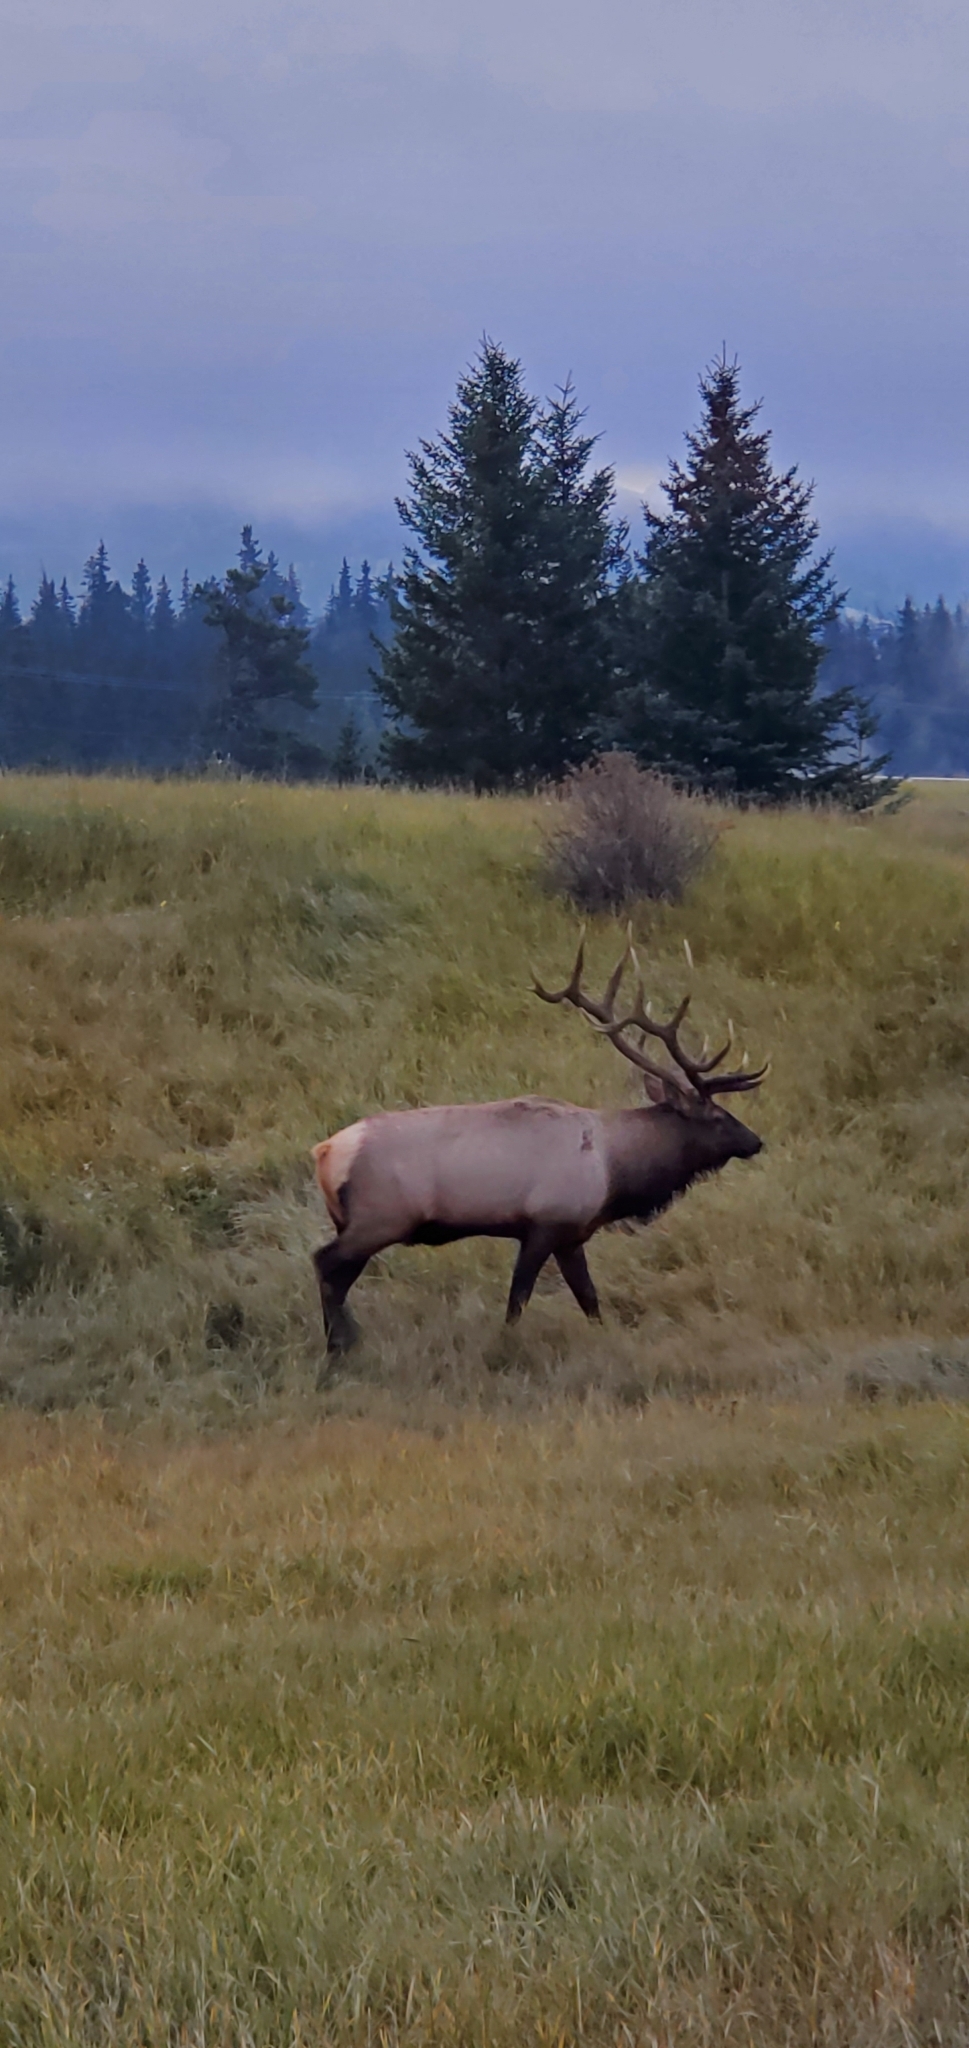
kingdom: Animalia
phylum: Chordata
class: Mammalia
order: Artiodactyla
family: Cervidae
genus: Cervus
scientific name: Cervus elaphus
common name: Red deer
